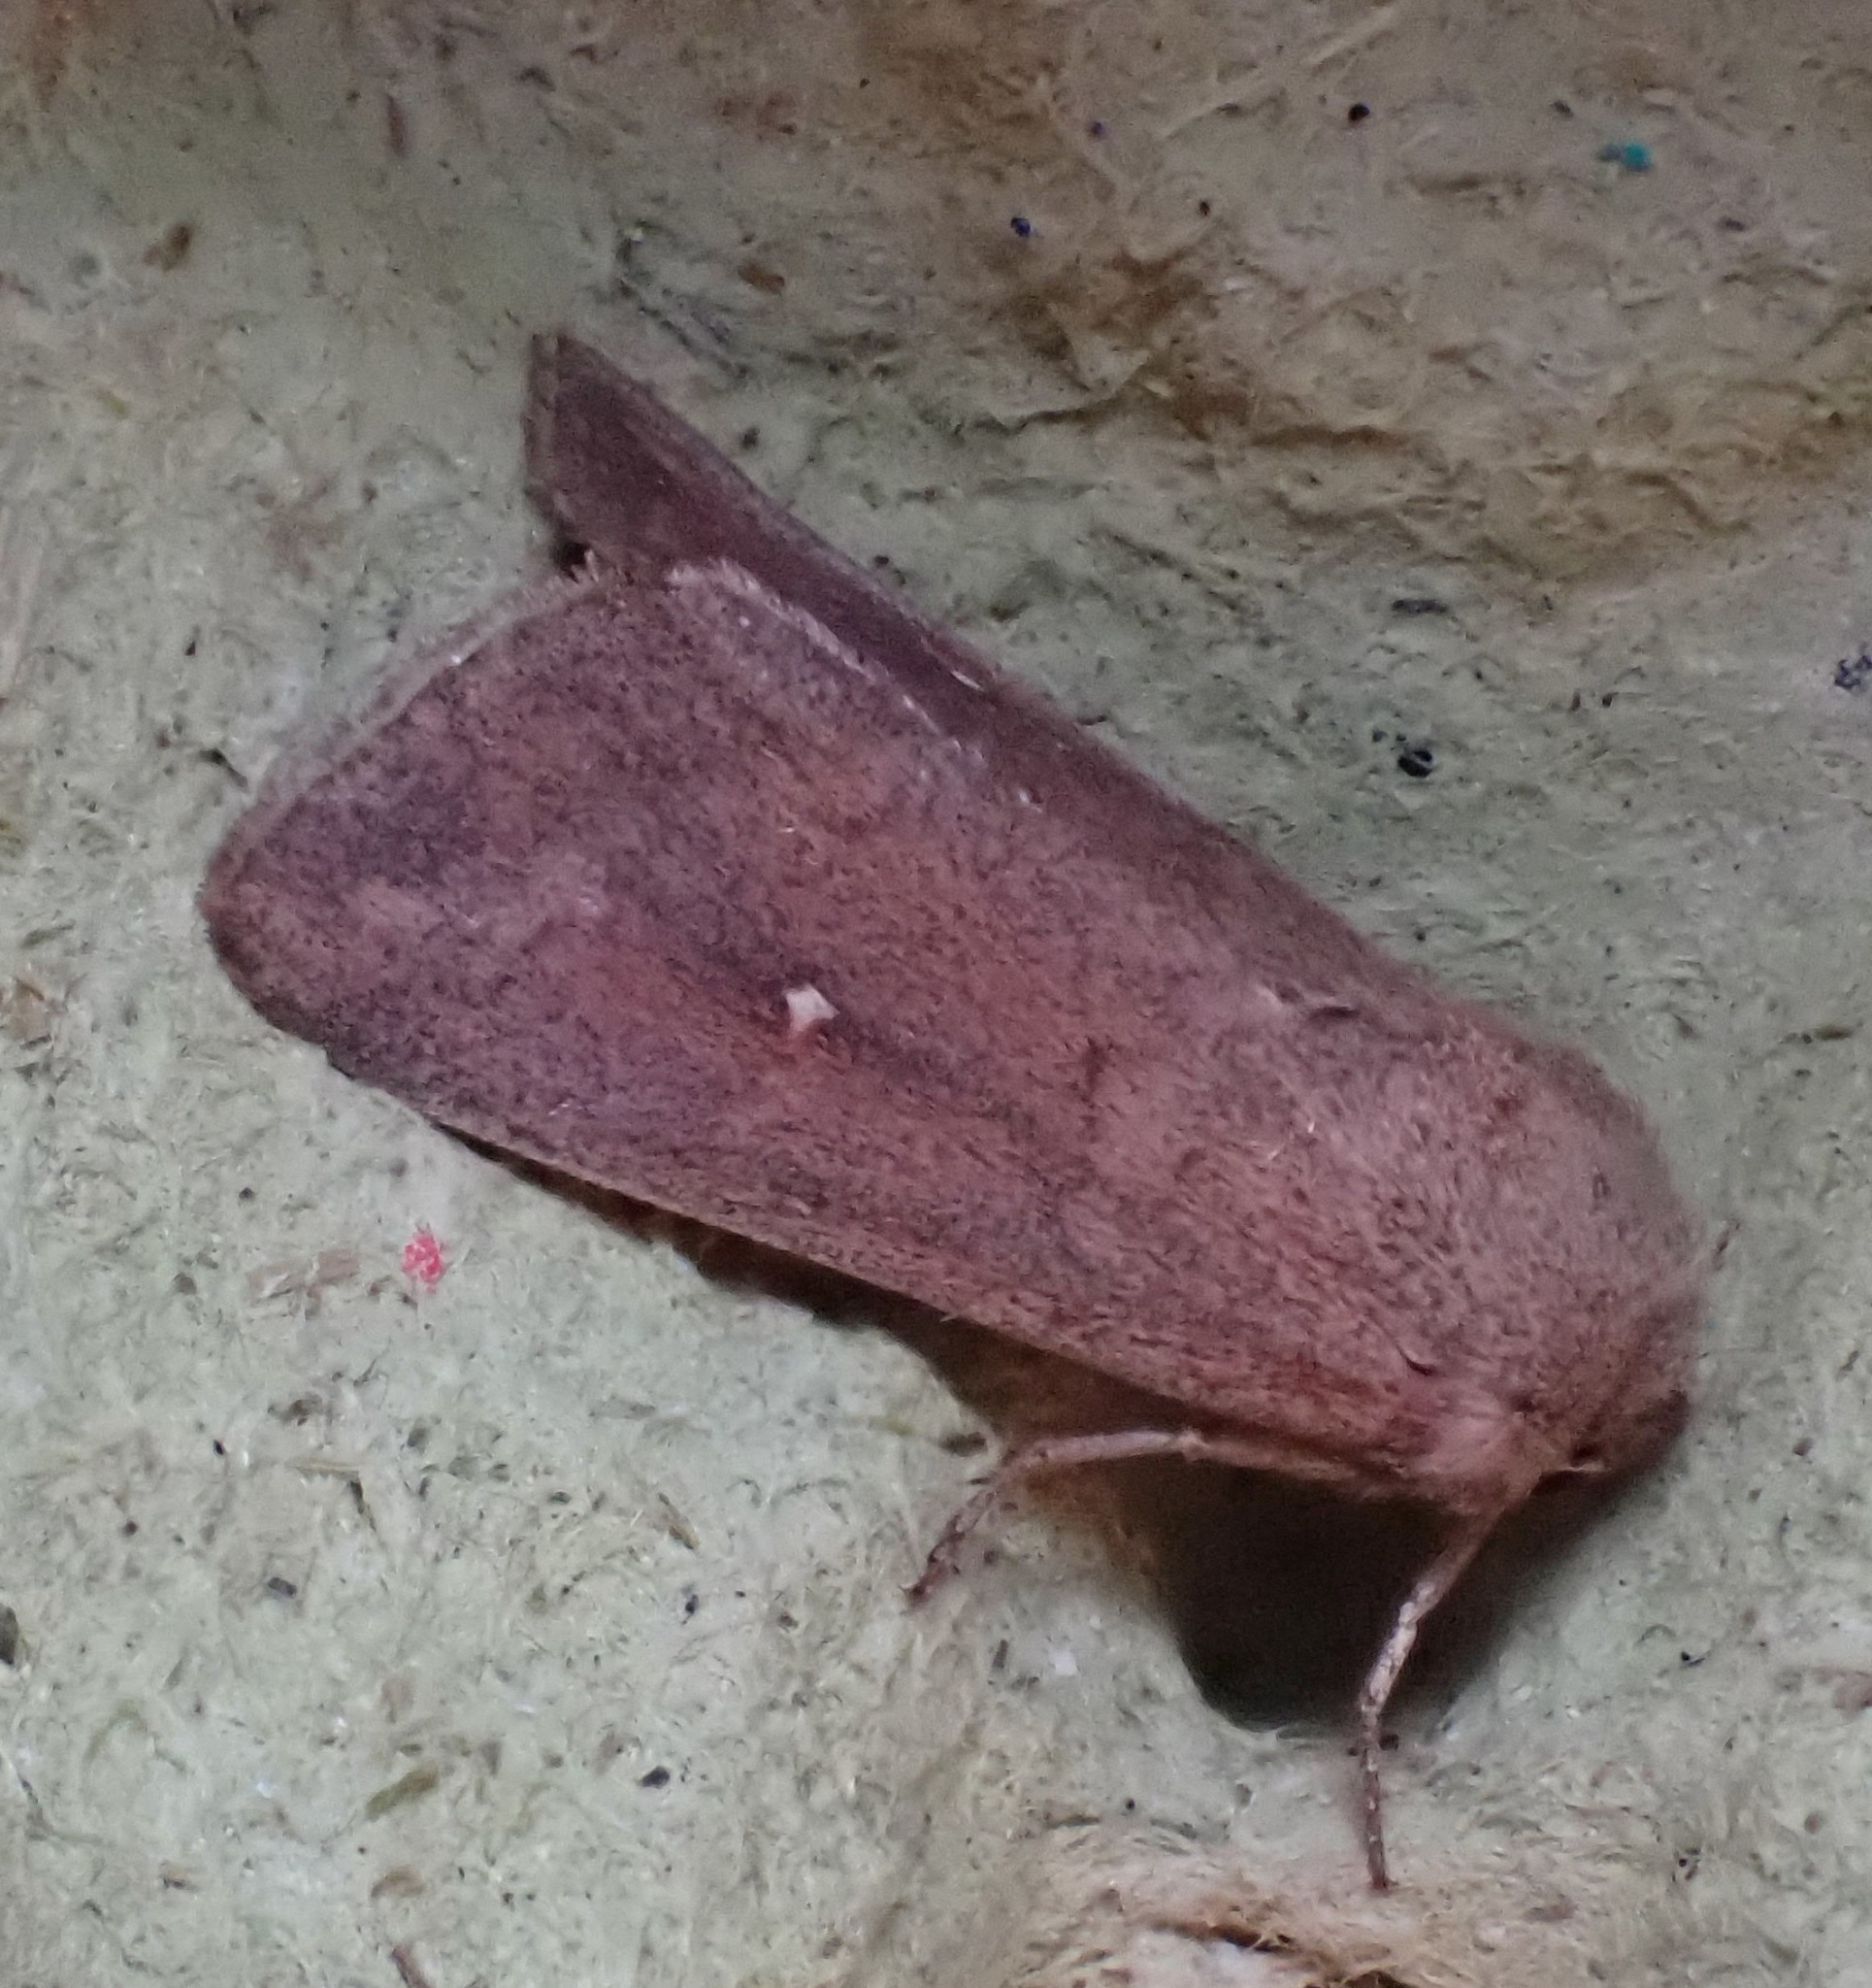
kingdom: Animalia
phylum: Arthropoda
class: Insecta
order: Lepidoptera
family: Noctuidae
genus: Mythimna
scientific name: Mythimna albipuncta
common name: White-point
